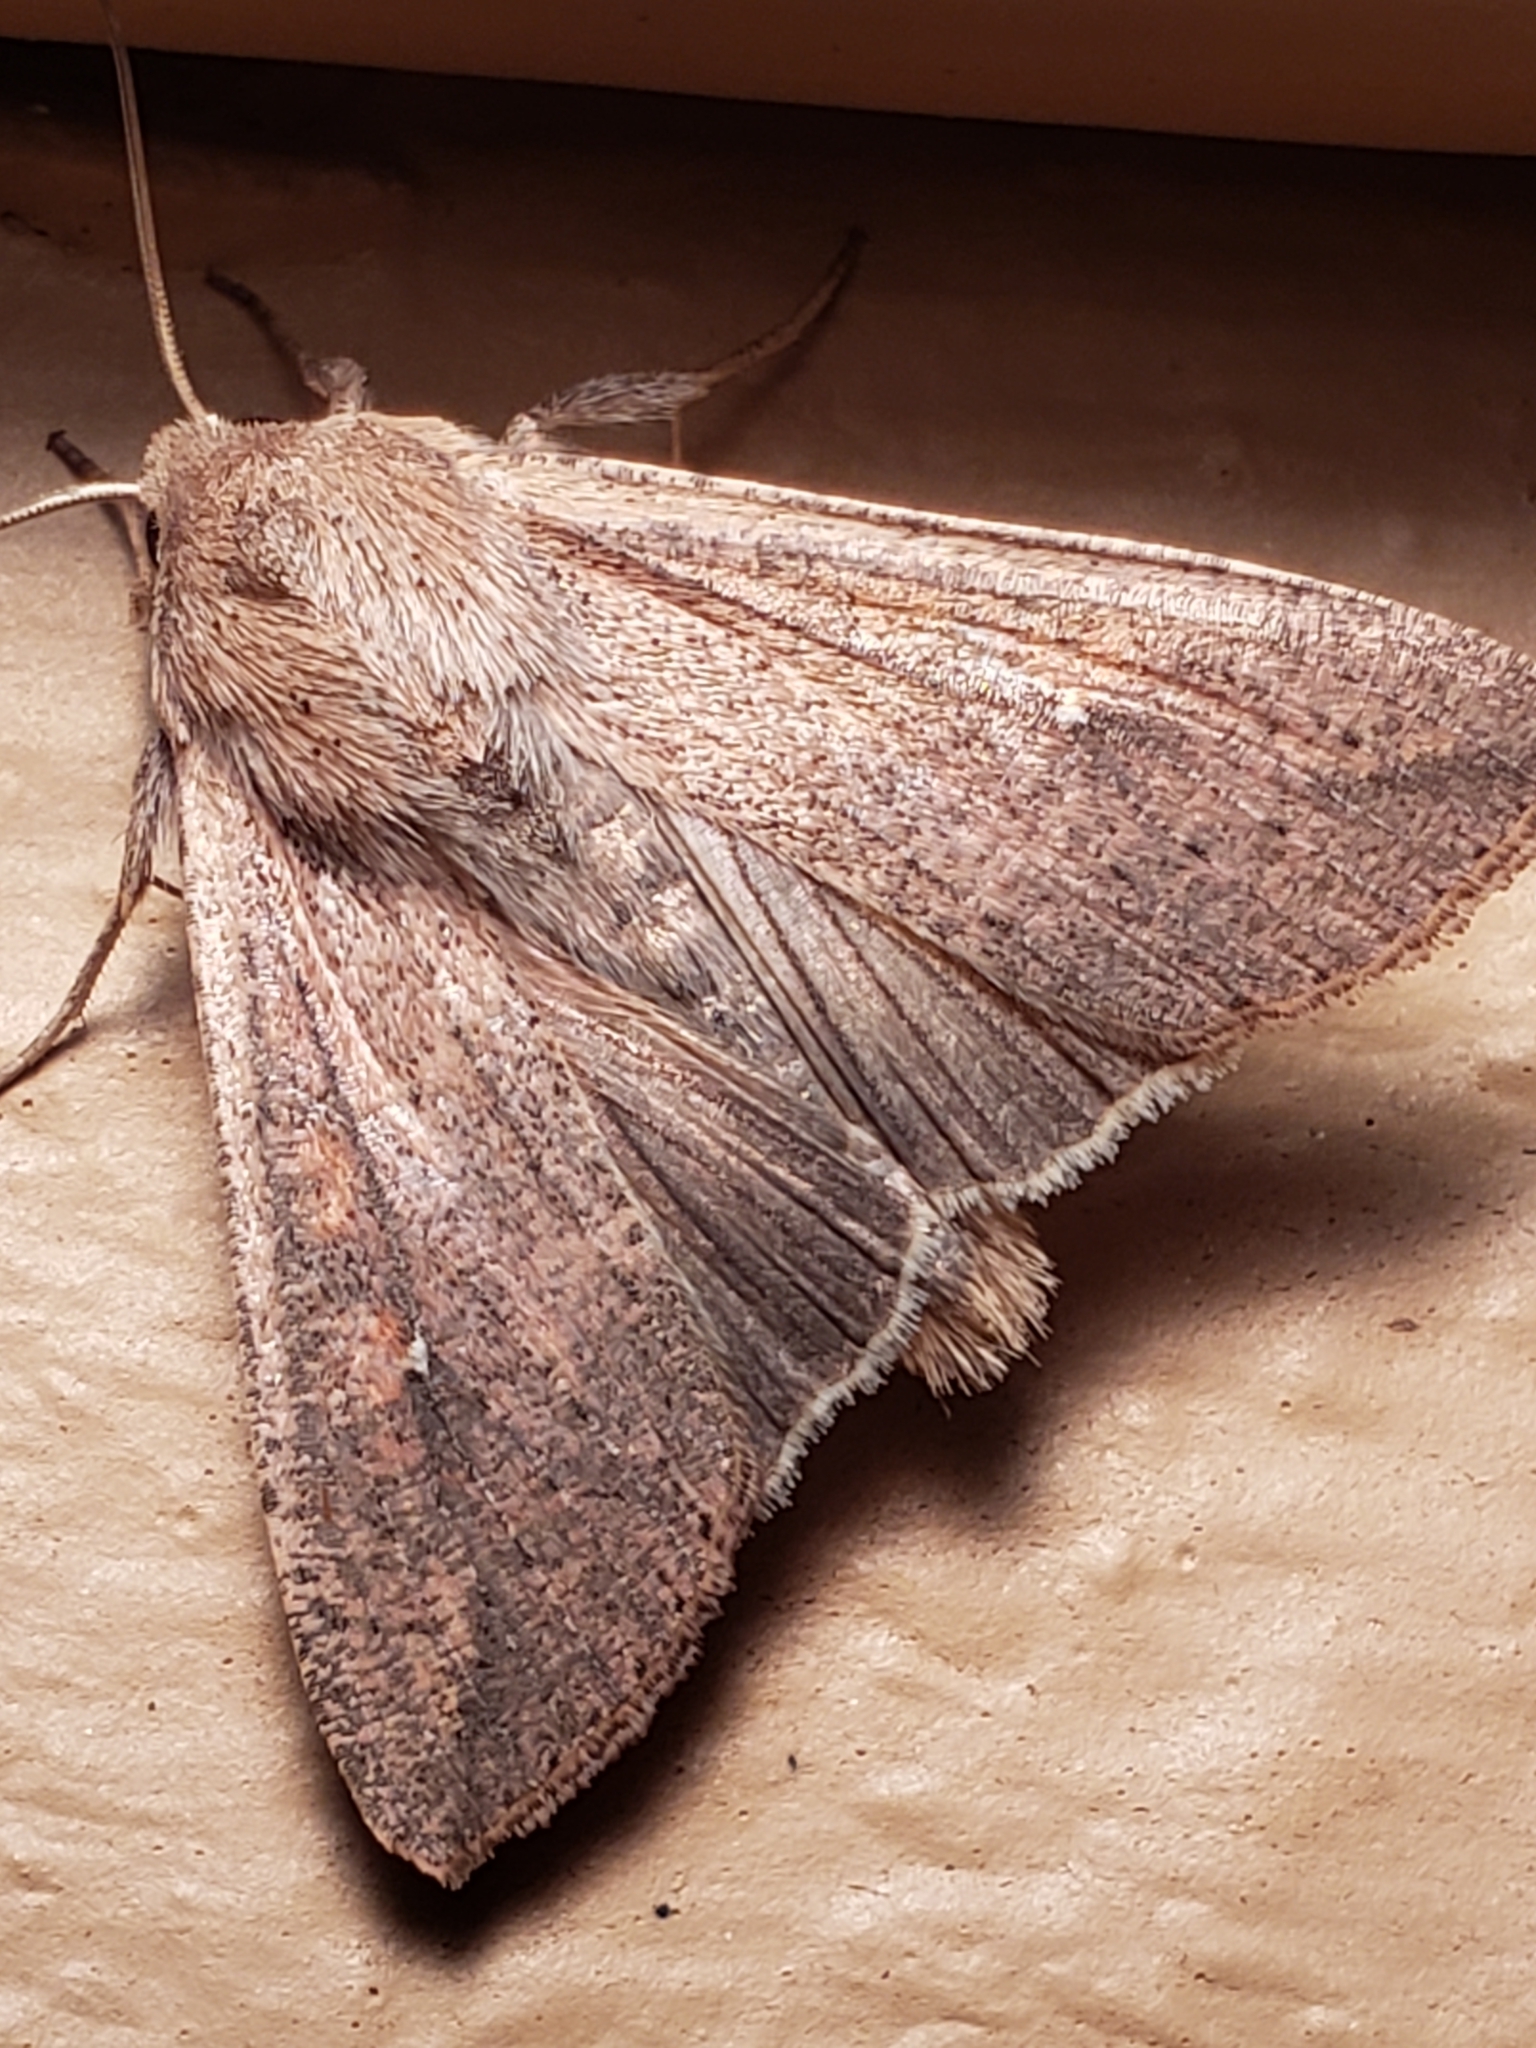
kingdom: Animalia
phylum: Arthropoda
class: Insecta
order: Lepidoptera
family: Noctuidae
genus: Mythimna
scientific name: Mythimna unipuncta
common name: White-speck
